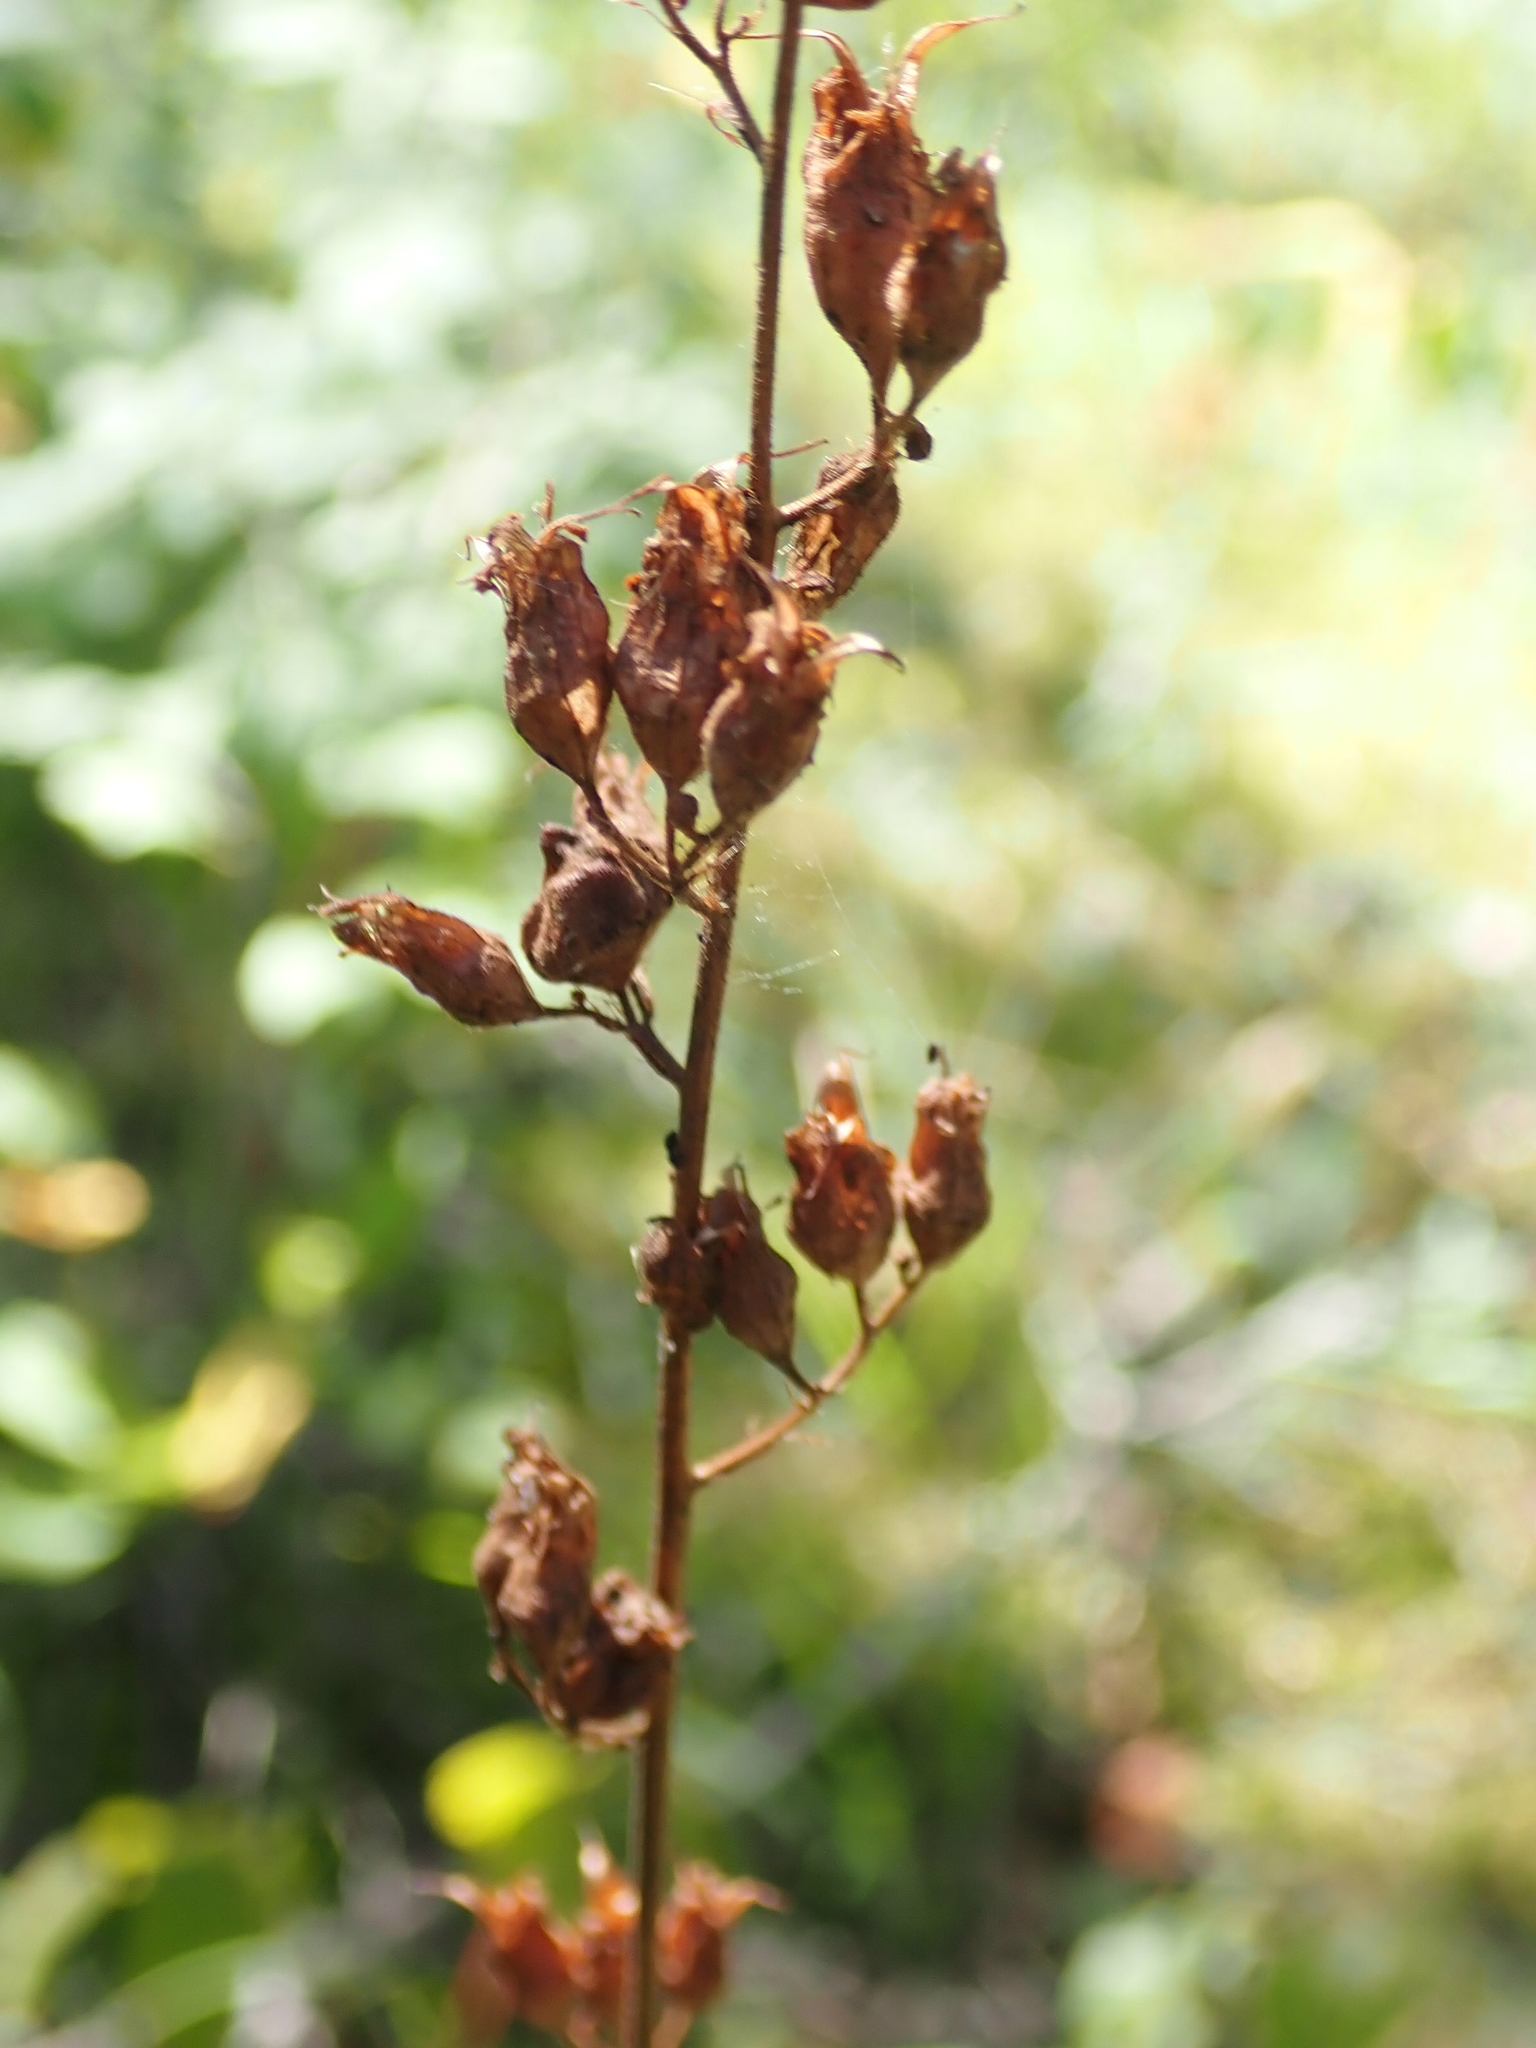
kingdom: Plantae
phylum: Tracheophyta
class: Magnoliopsida
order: Saxifragales
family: Saxifragaceae
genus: Heuchera
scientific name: Heuchera richardsonii
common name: Richardson's alumroot
